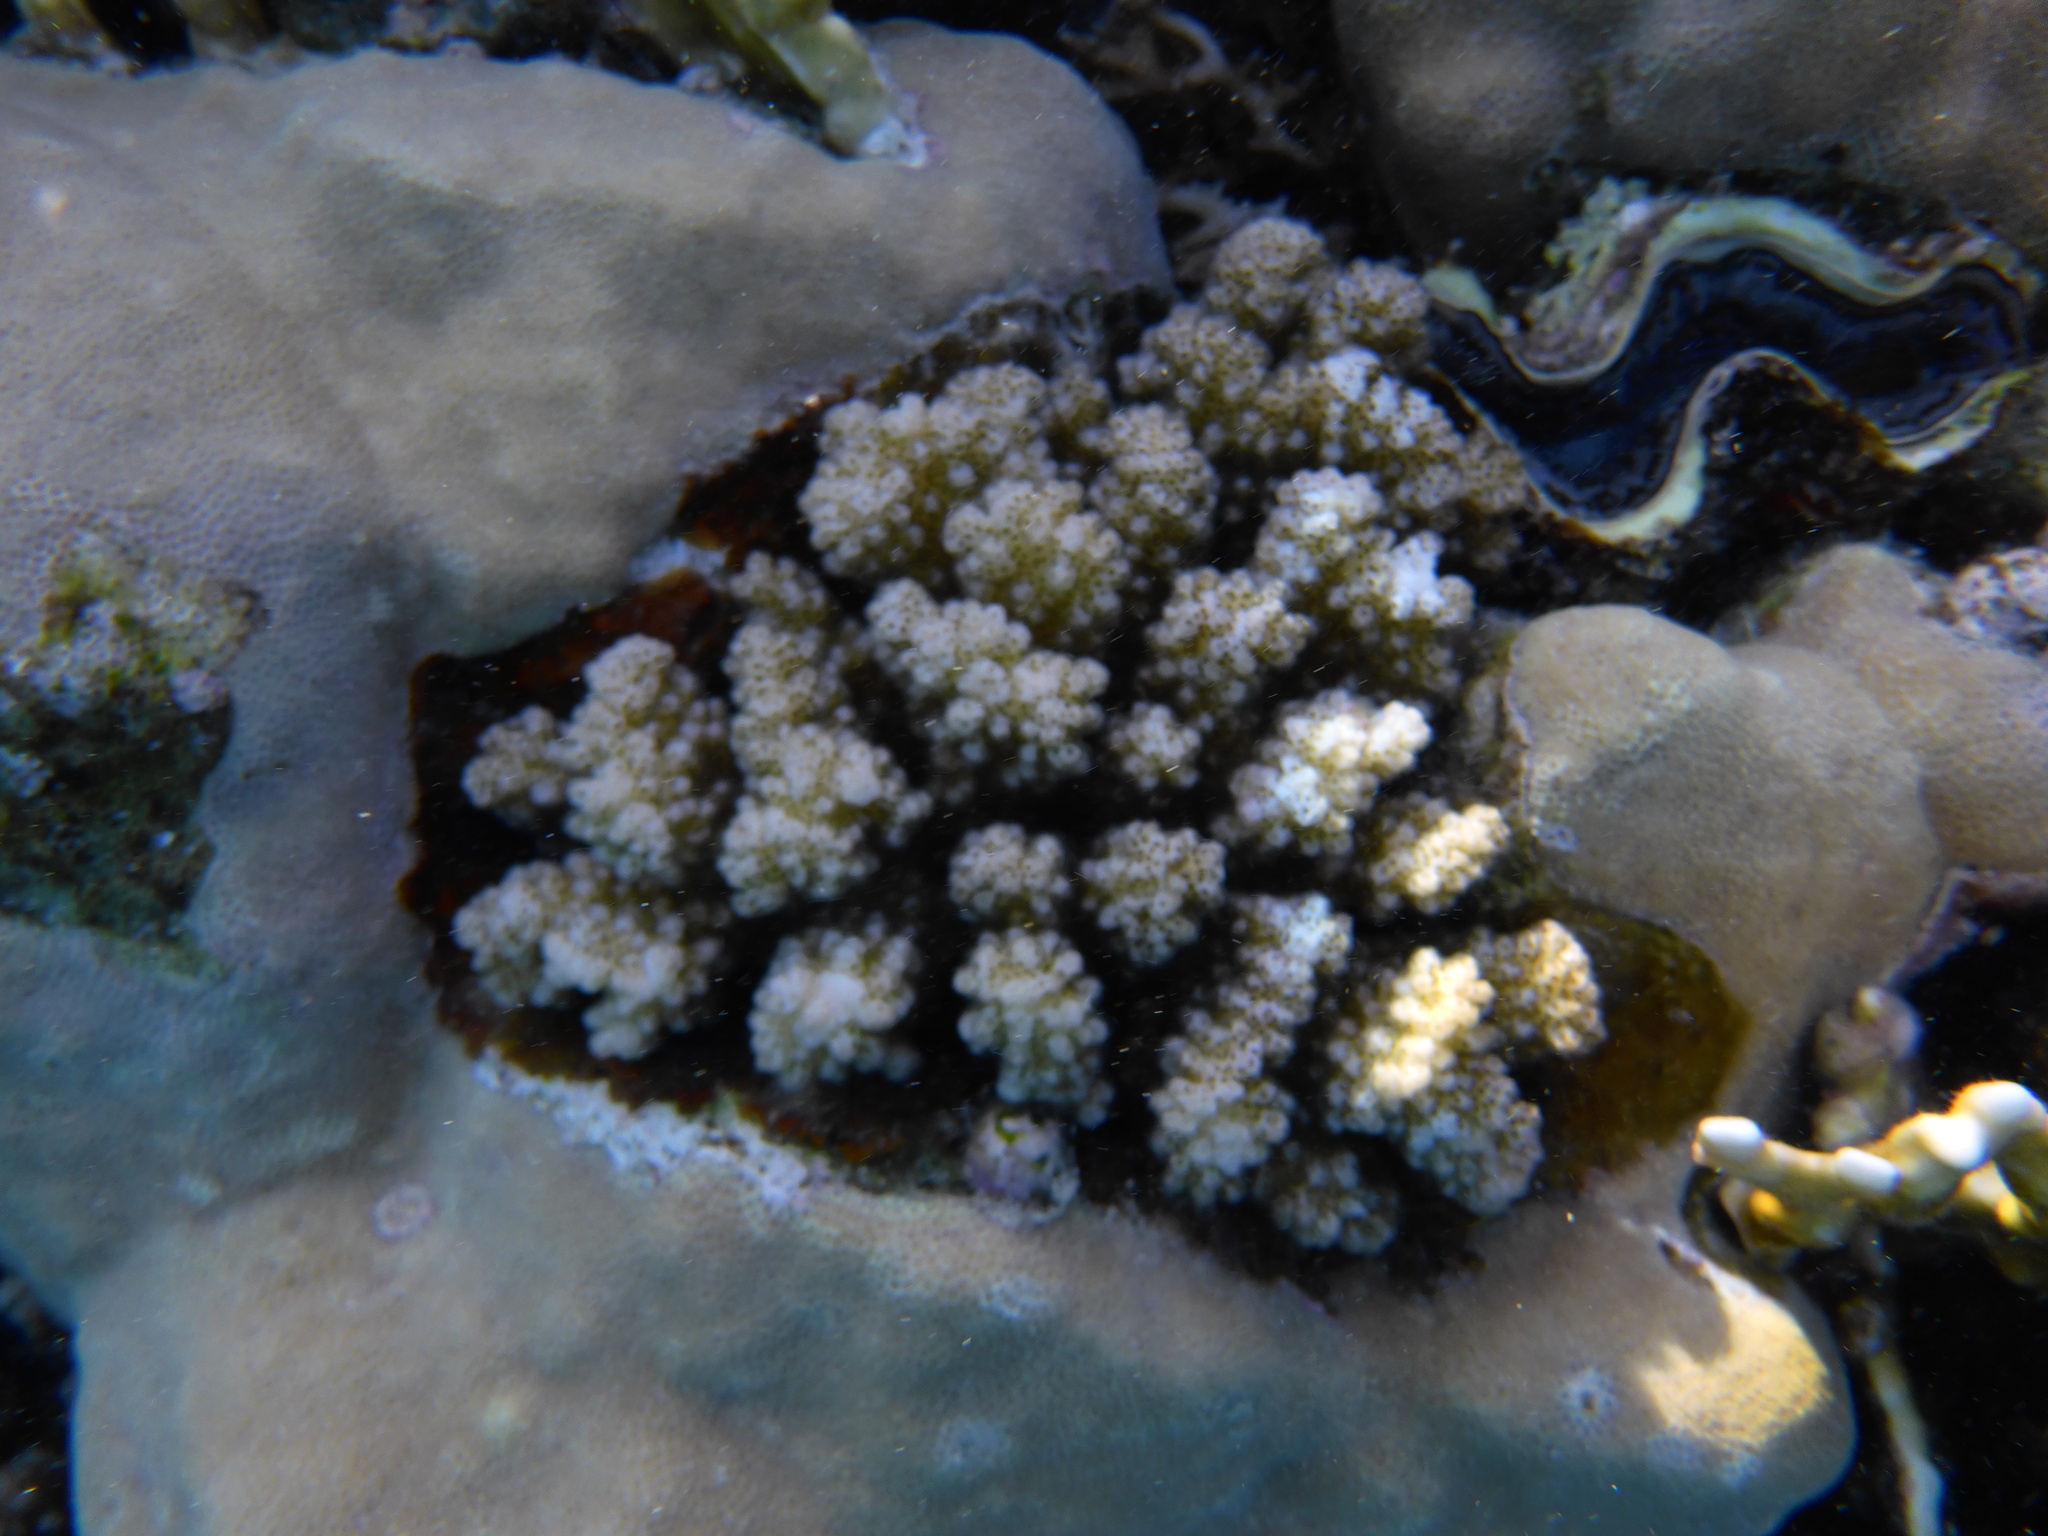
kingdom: Animalia
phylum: Cnidaria
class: Anthozoa
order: Scleractinia
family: Pocilloporidae
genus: Pocillopora
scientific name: Pocillopora verrucosa
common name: Cauliflower coral
